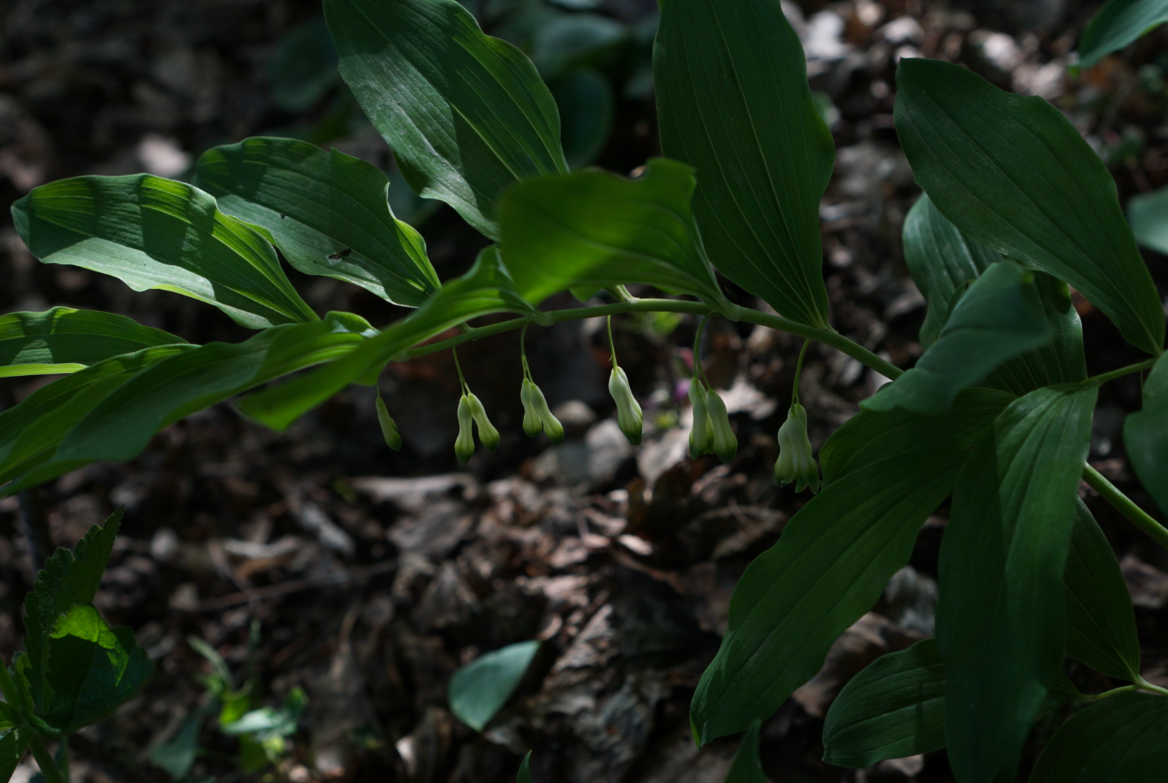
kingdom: Plantae
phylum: Tracheophyta
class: Liliopsida
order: Asparagales
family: Asparagaceae
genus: Polygonatum
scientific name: Polygonatum multiflorum
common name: Solomon's-seal
